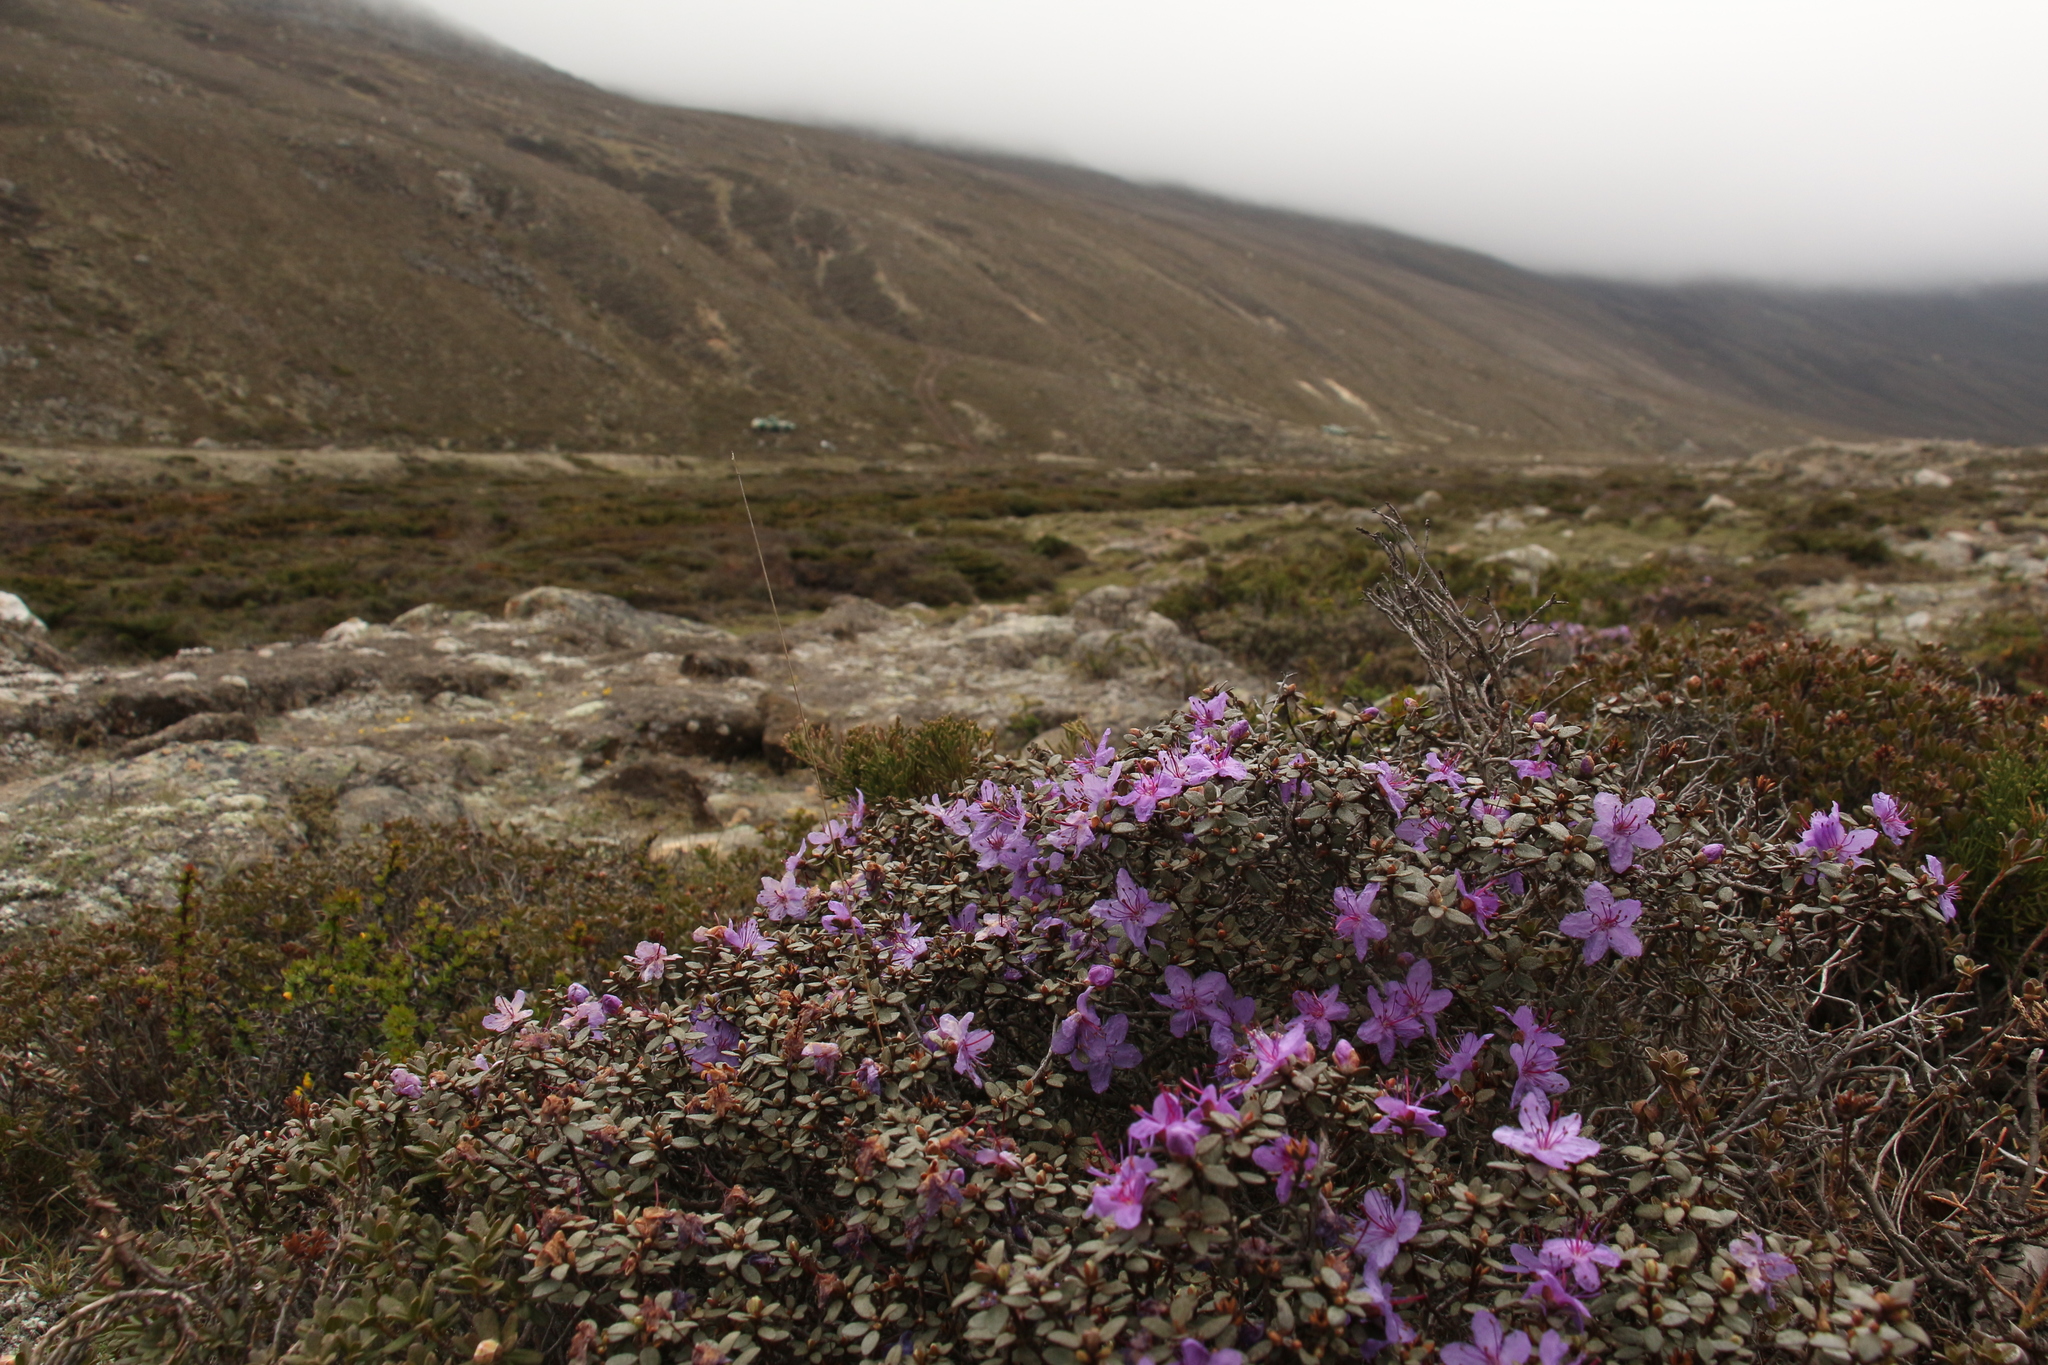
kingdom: Plantae
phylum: Tracheophyta
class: Magnoliopsida
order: Ericales
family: Ericaceae
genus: Rhododendron
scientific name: Rhododendron nivale
